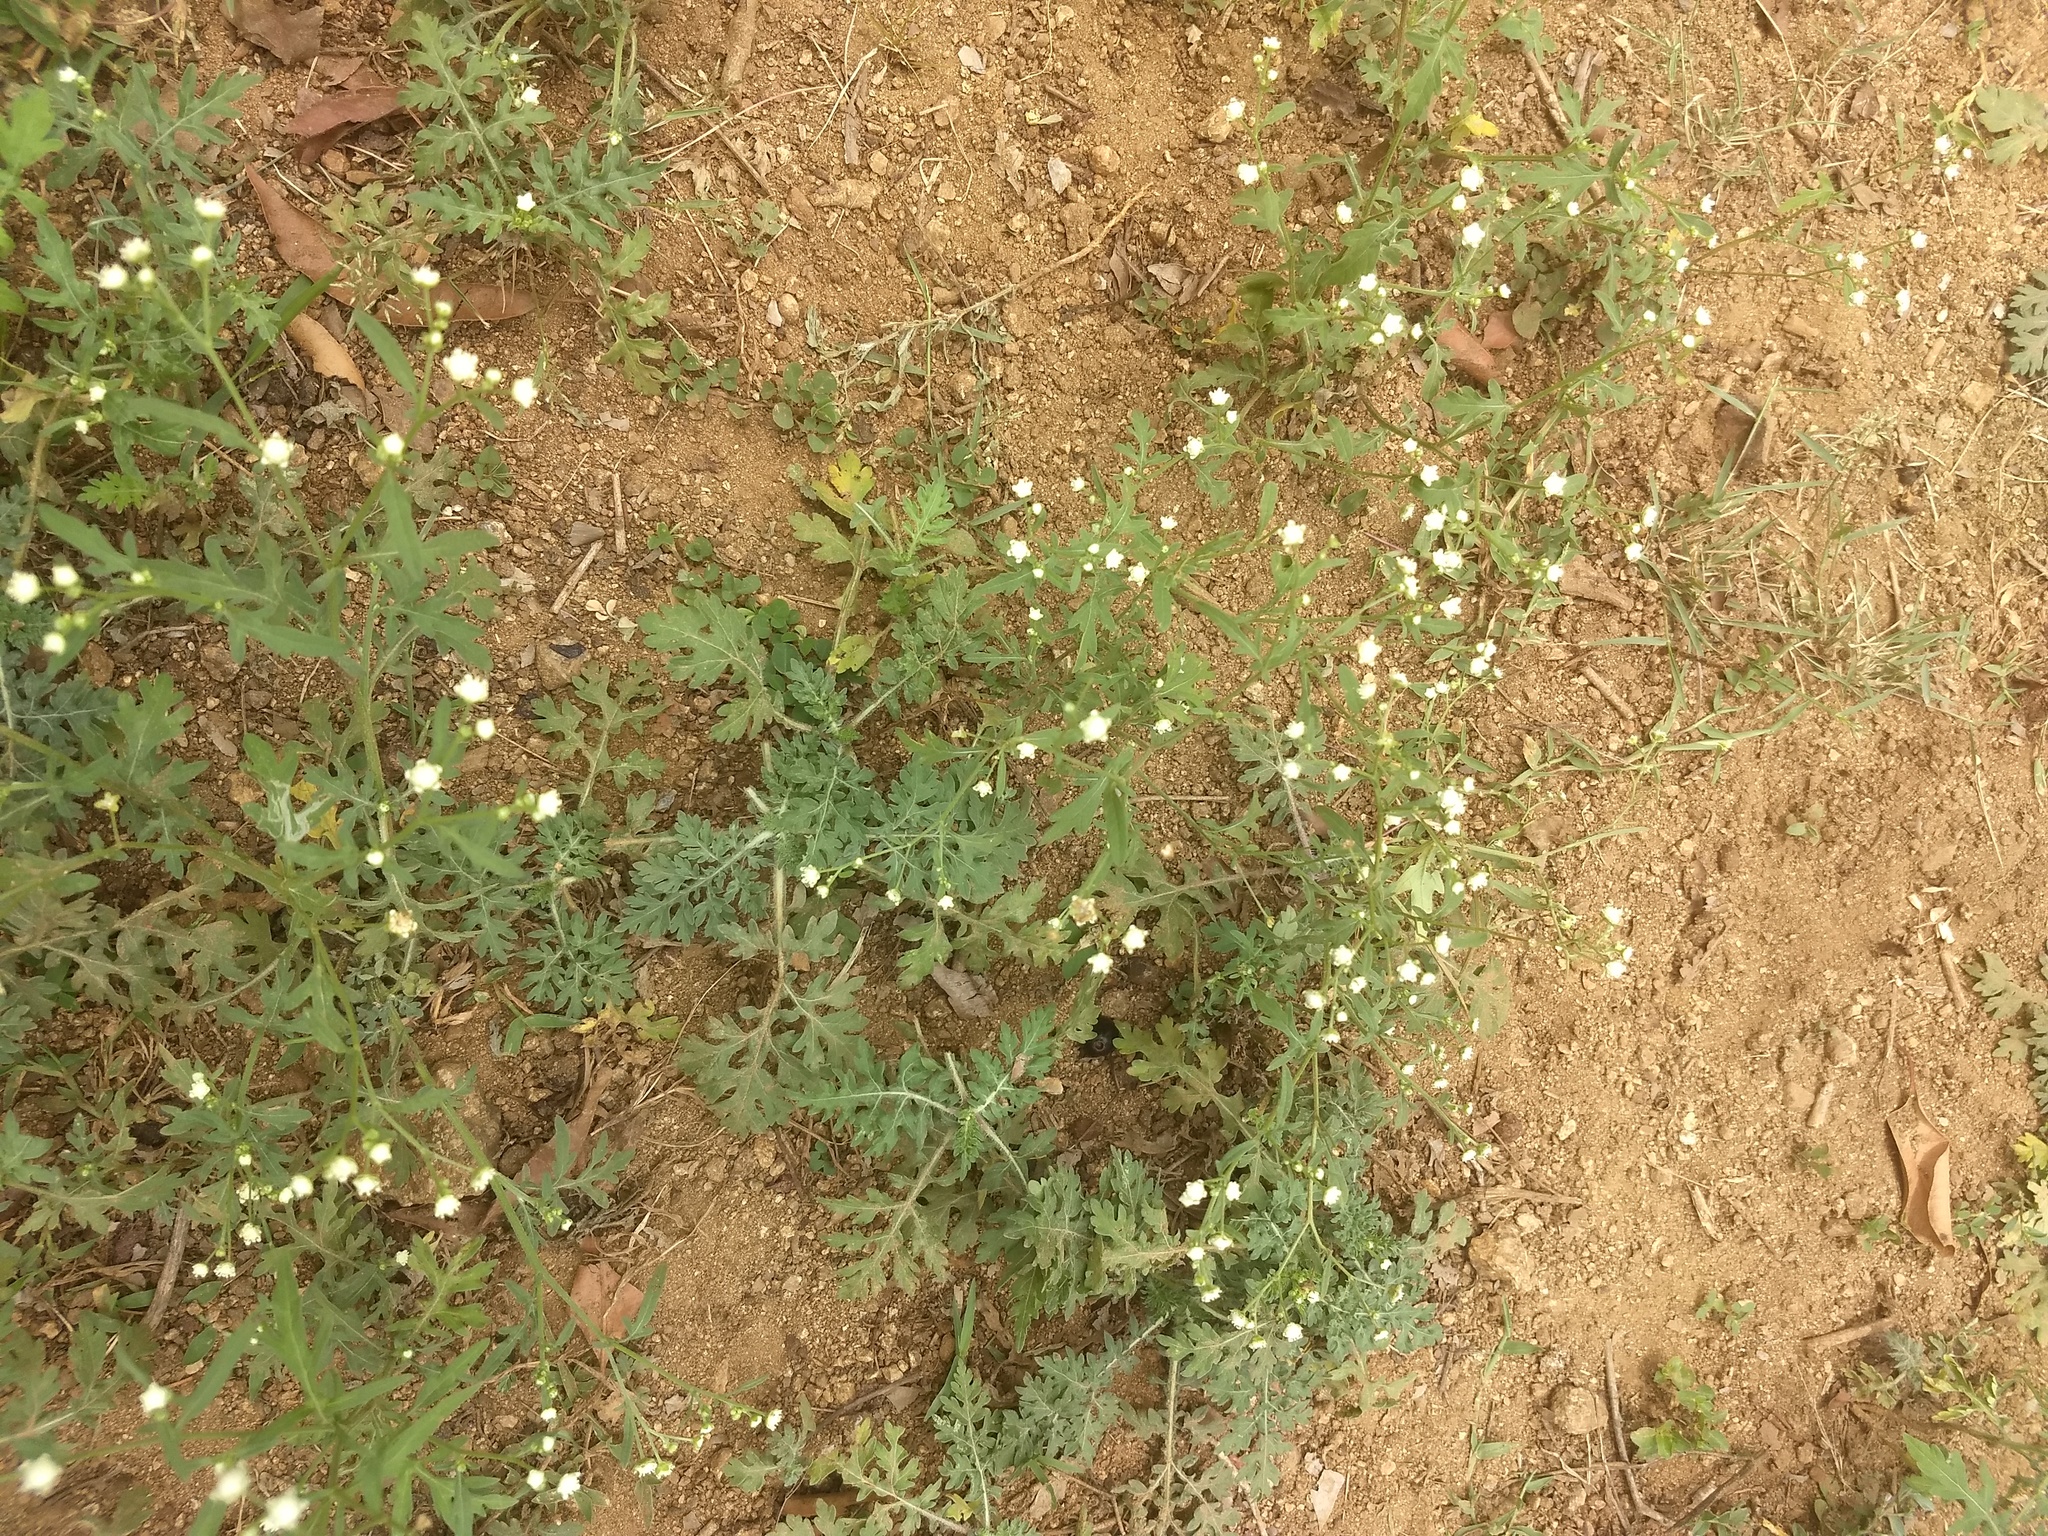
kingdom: Plantae
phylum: Tracheophyta
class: Magnoliopsida
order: Asterales
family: Asteraceae
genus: Parthenium
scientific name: Parthenium hysterophorus
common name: Santa maria feverfew
